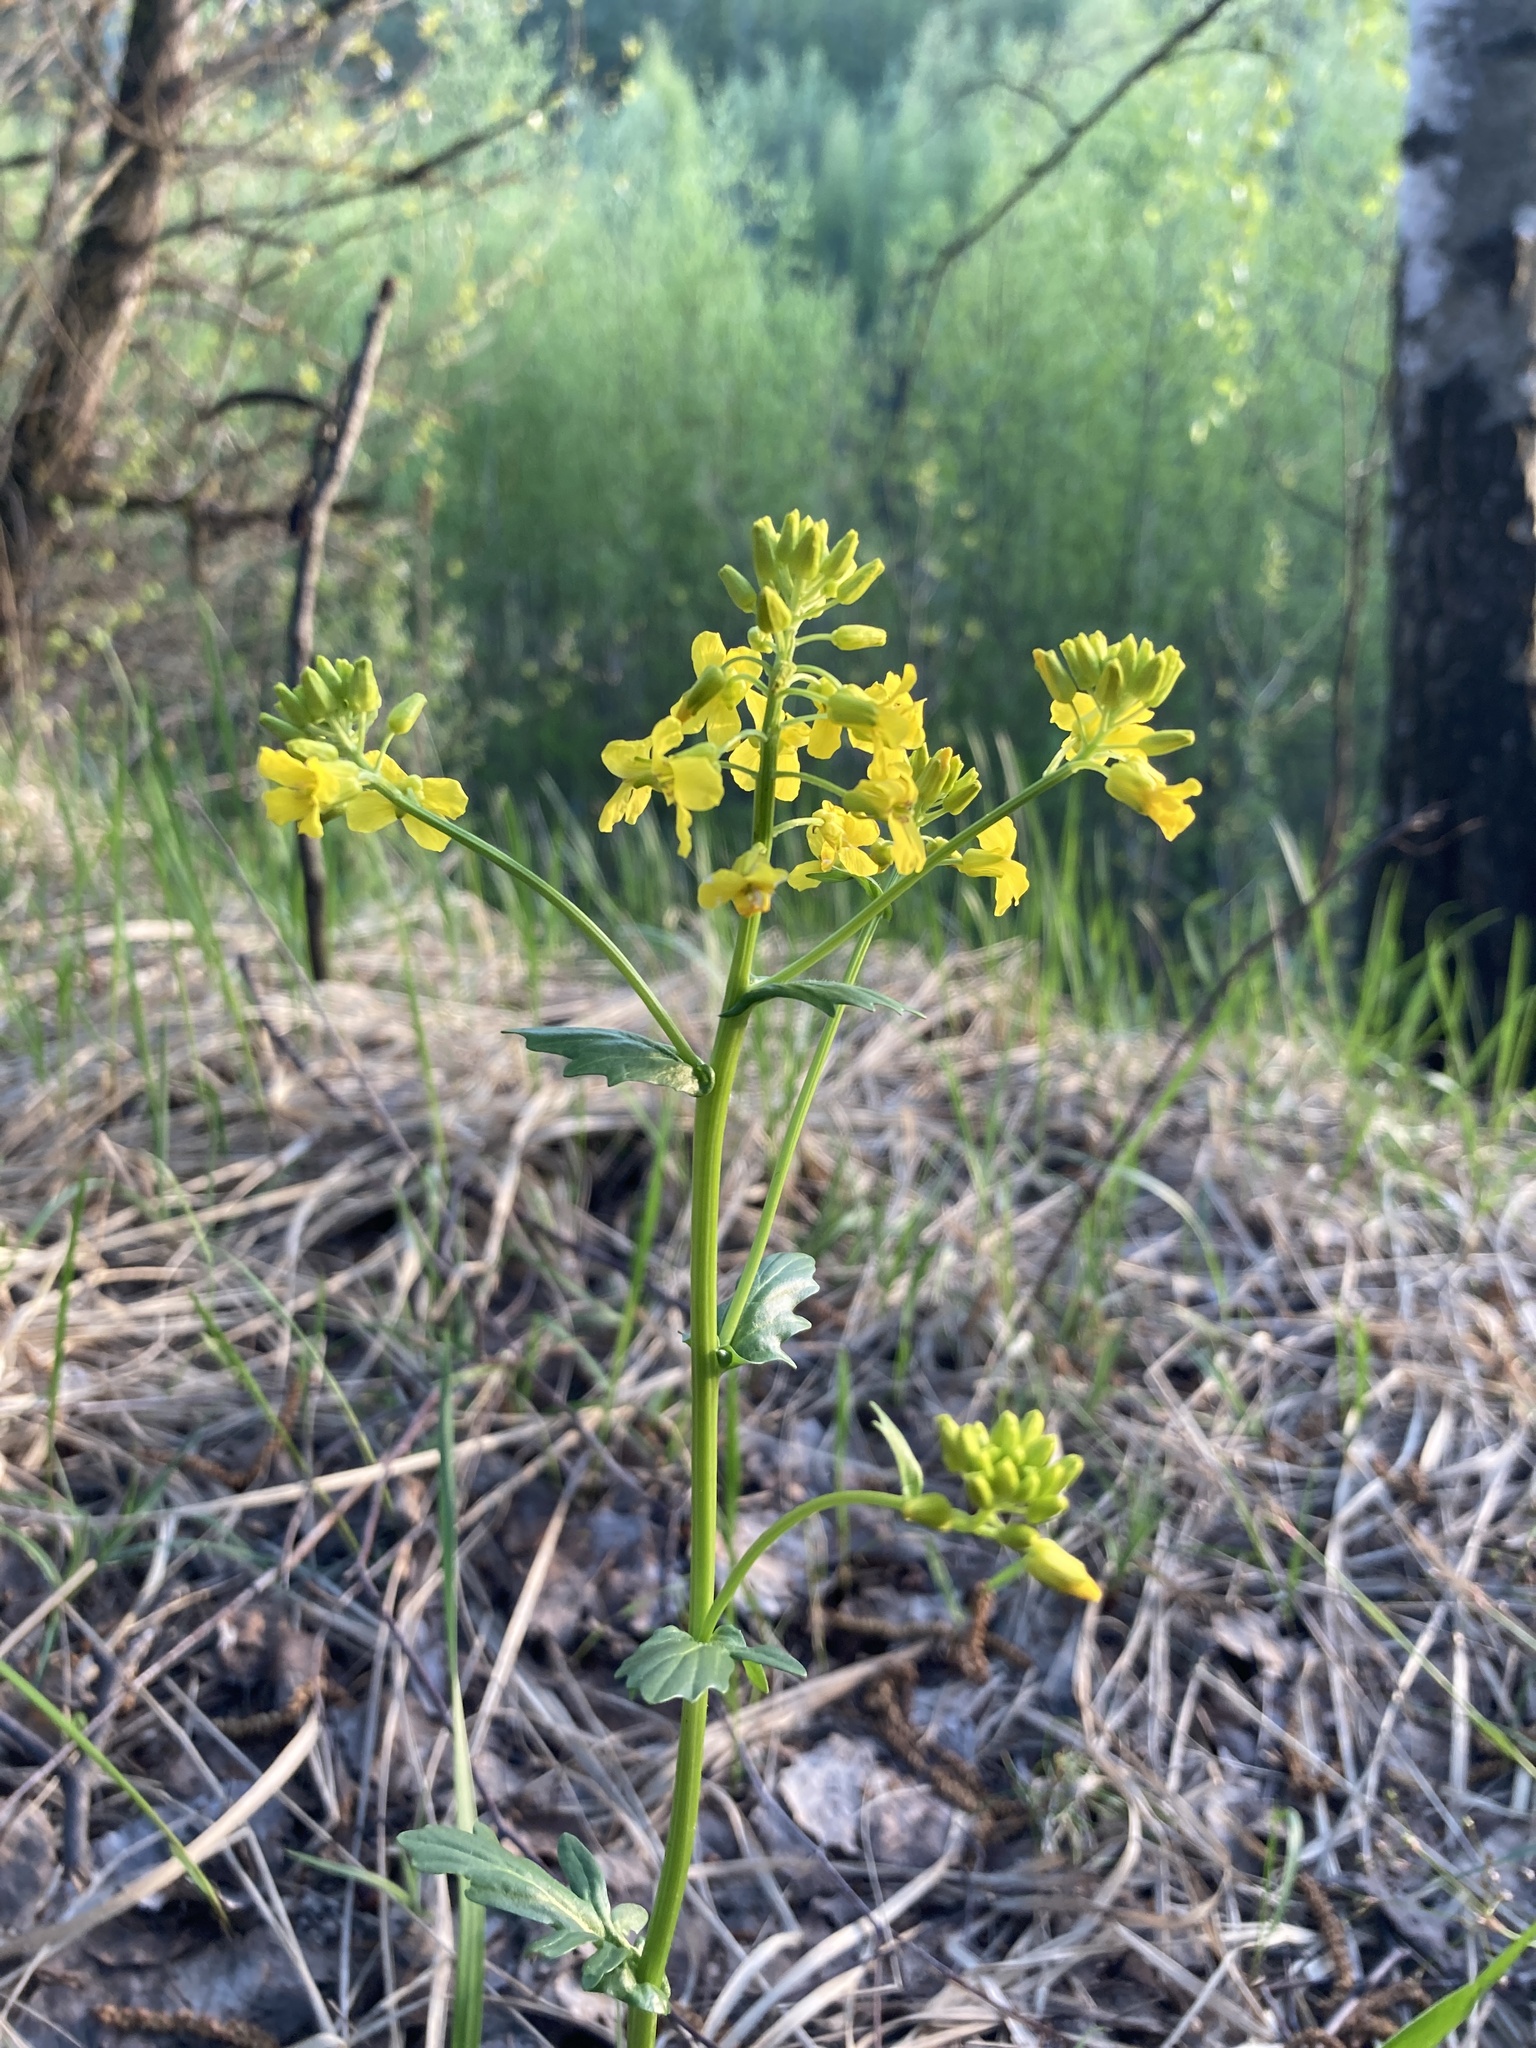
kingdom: Plantae
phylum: Tracheophyta
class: Magnoliopsida
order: Brassicales
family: Brassicaceae
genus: Barbarea
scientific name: Barbarea vulgaris
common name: Cressy-greens
